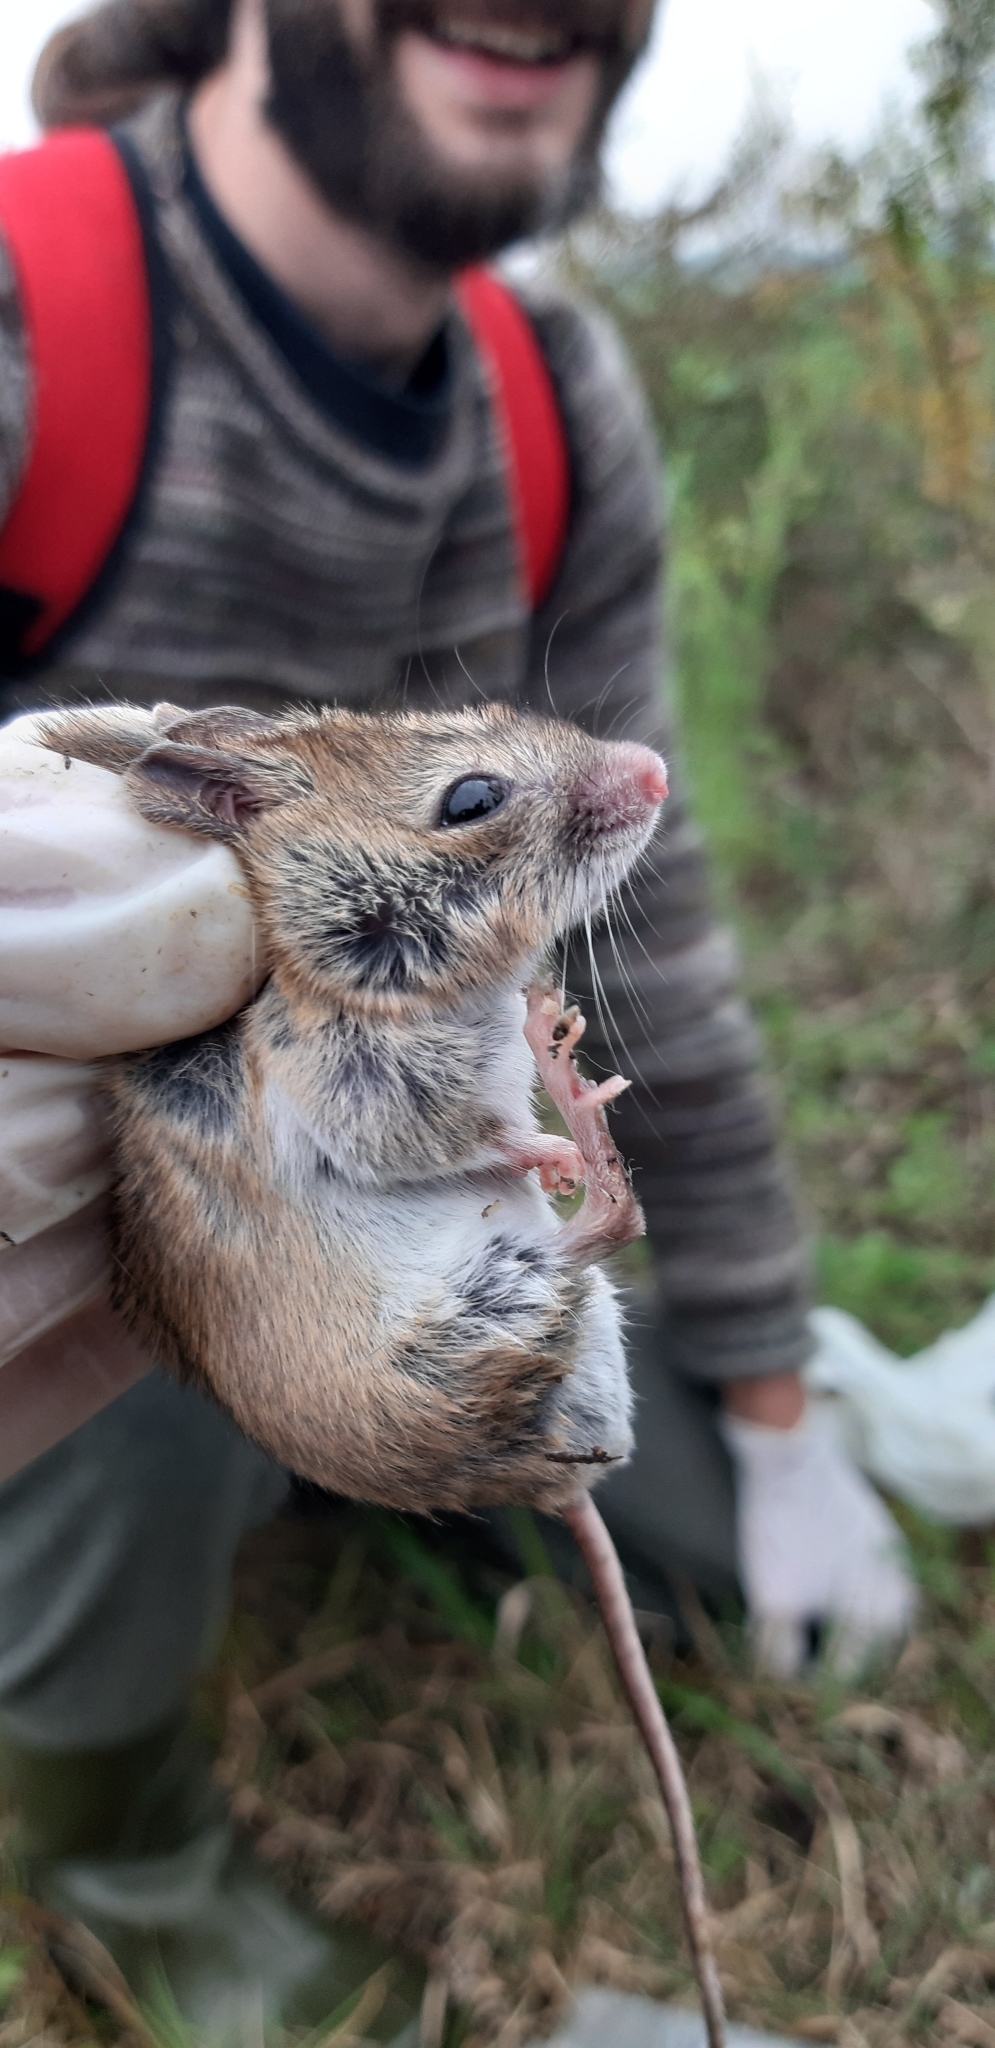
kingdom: Animalia
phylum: Chordata
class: Mammalia
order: Rodentia
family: Muridae
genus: Apodemus
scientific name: Apodemus sylvaticus
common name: Wood mouse
